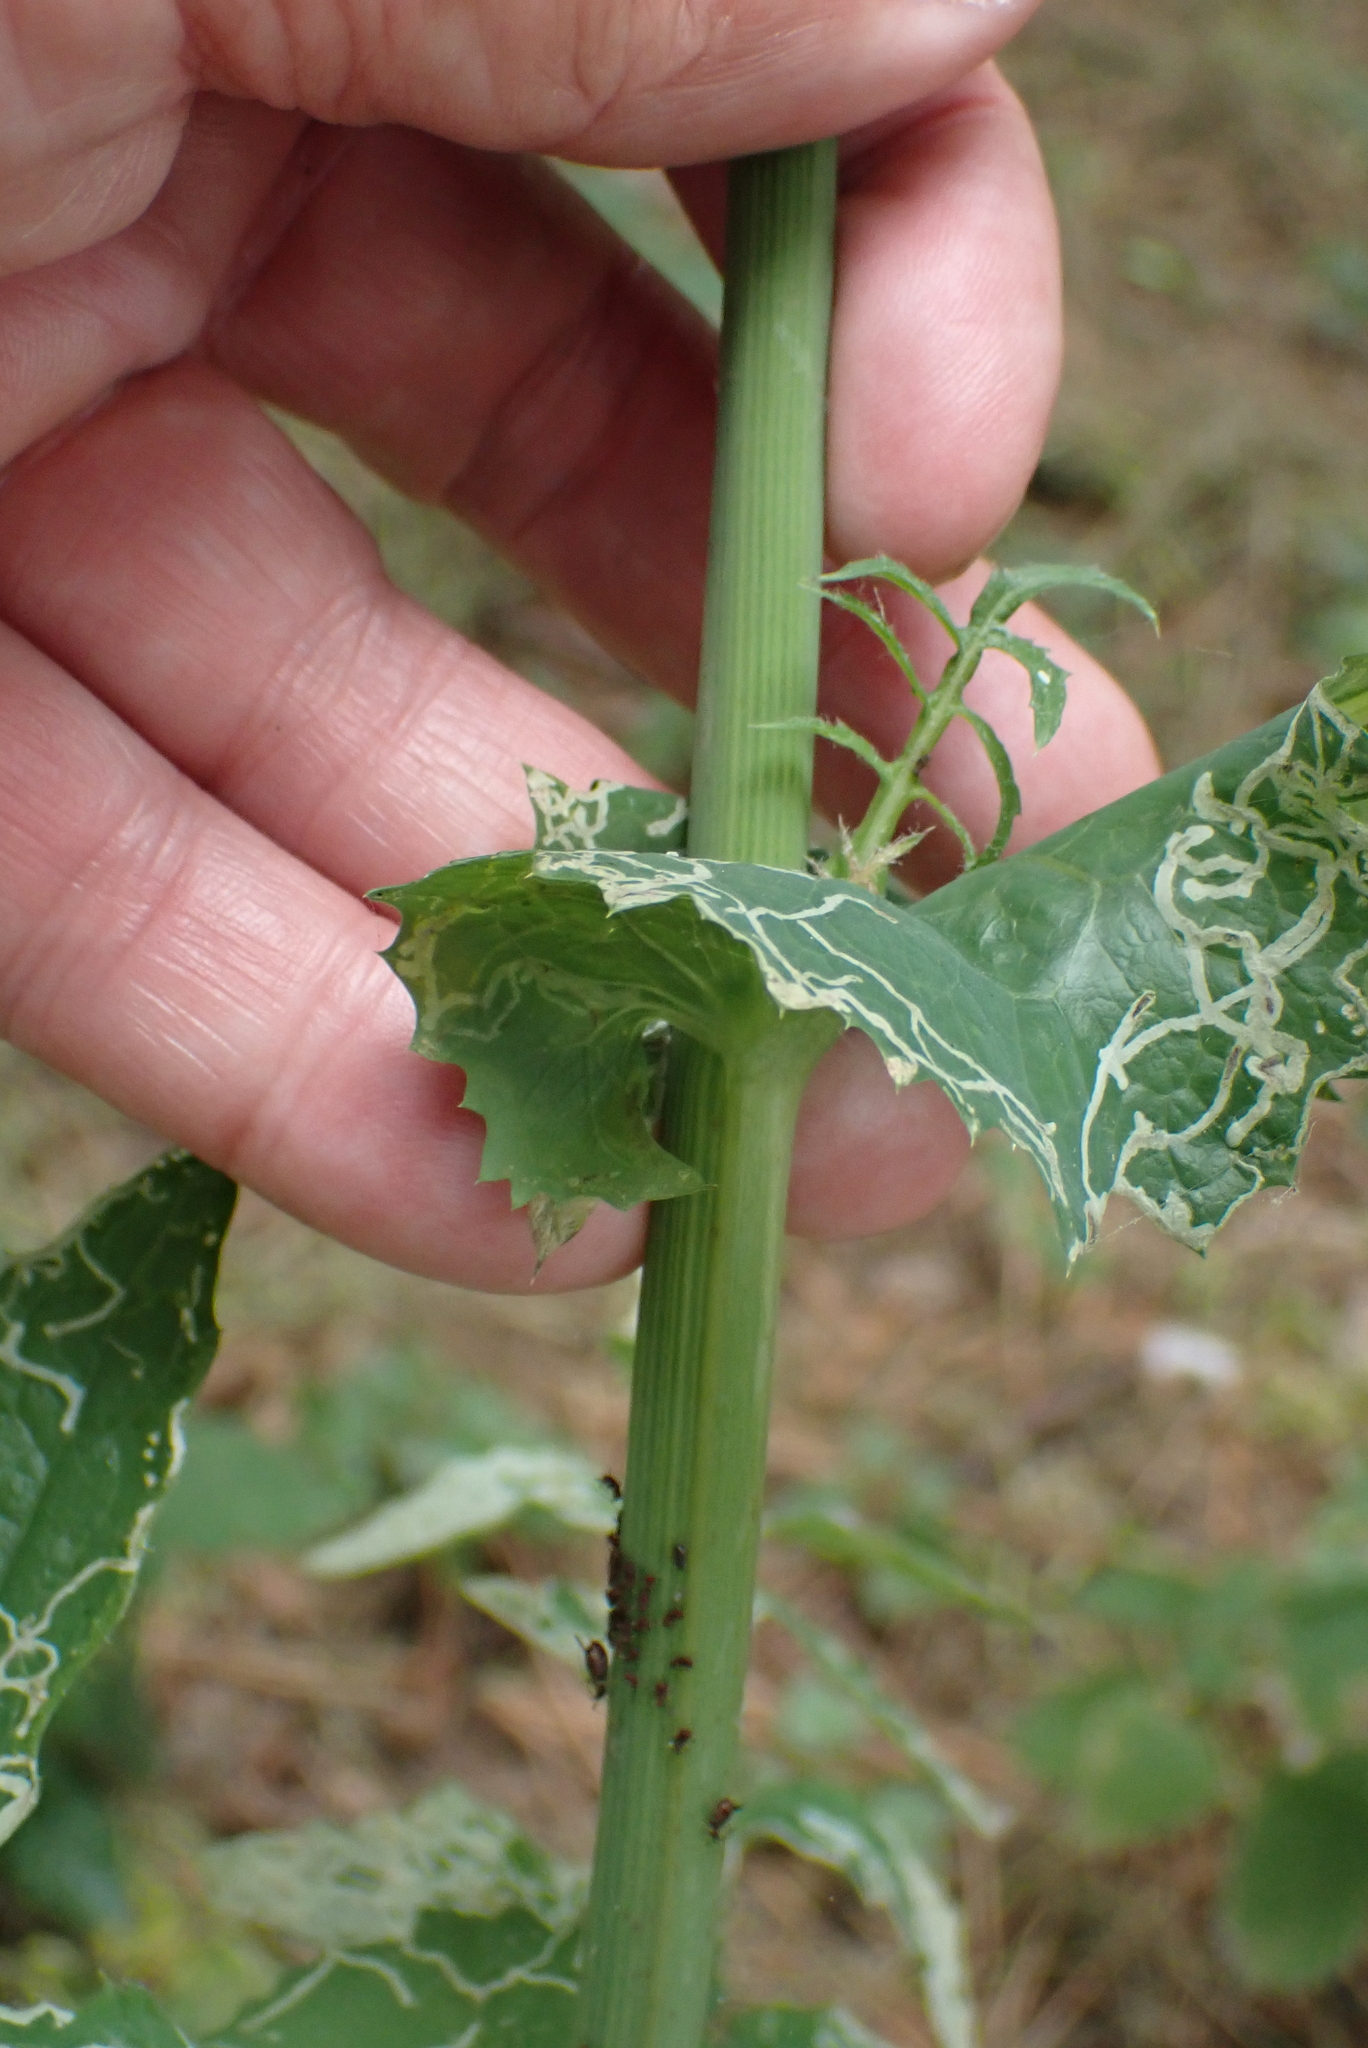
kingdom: Plantae
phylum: Tracheophyta
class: Magnoliopsida
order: Asterales
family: Asteraceae
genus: Sonchus
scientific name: Sonchus oleraceus
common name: Common sowthistle
